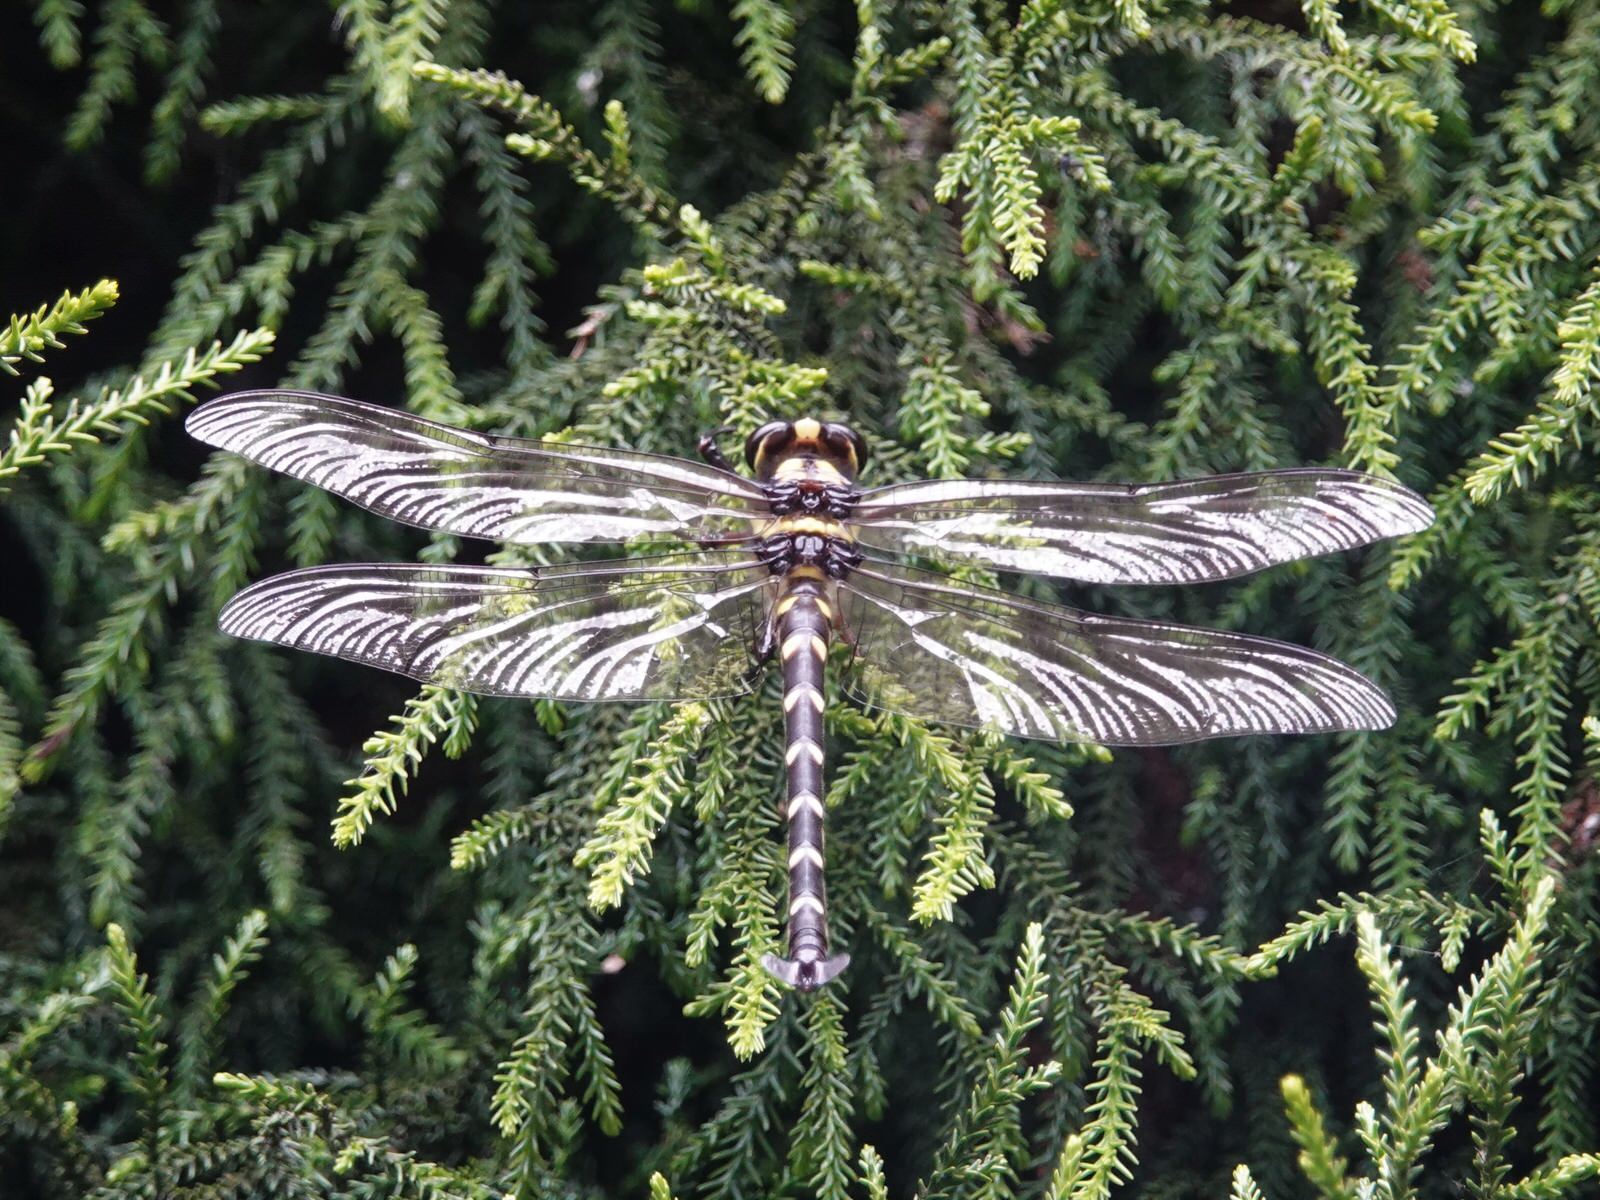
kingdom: Animalia
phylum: Arthropoda
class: Insecta
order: Odonata
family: Petaluridae
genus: Uropetala
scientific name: Uropetala carovei
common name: Bush giant dragonfly
